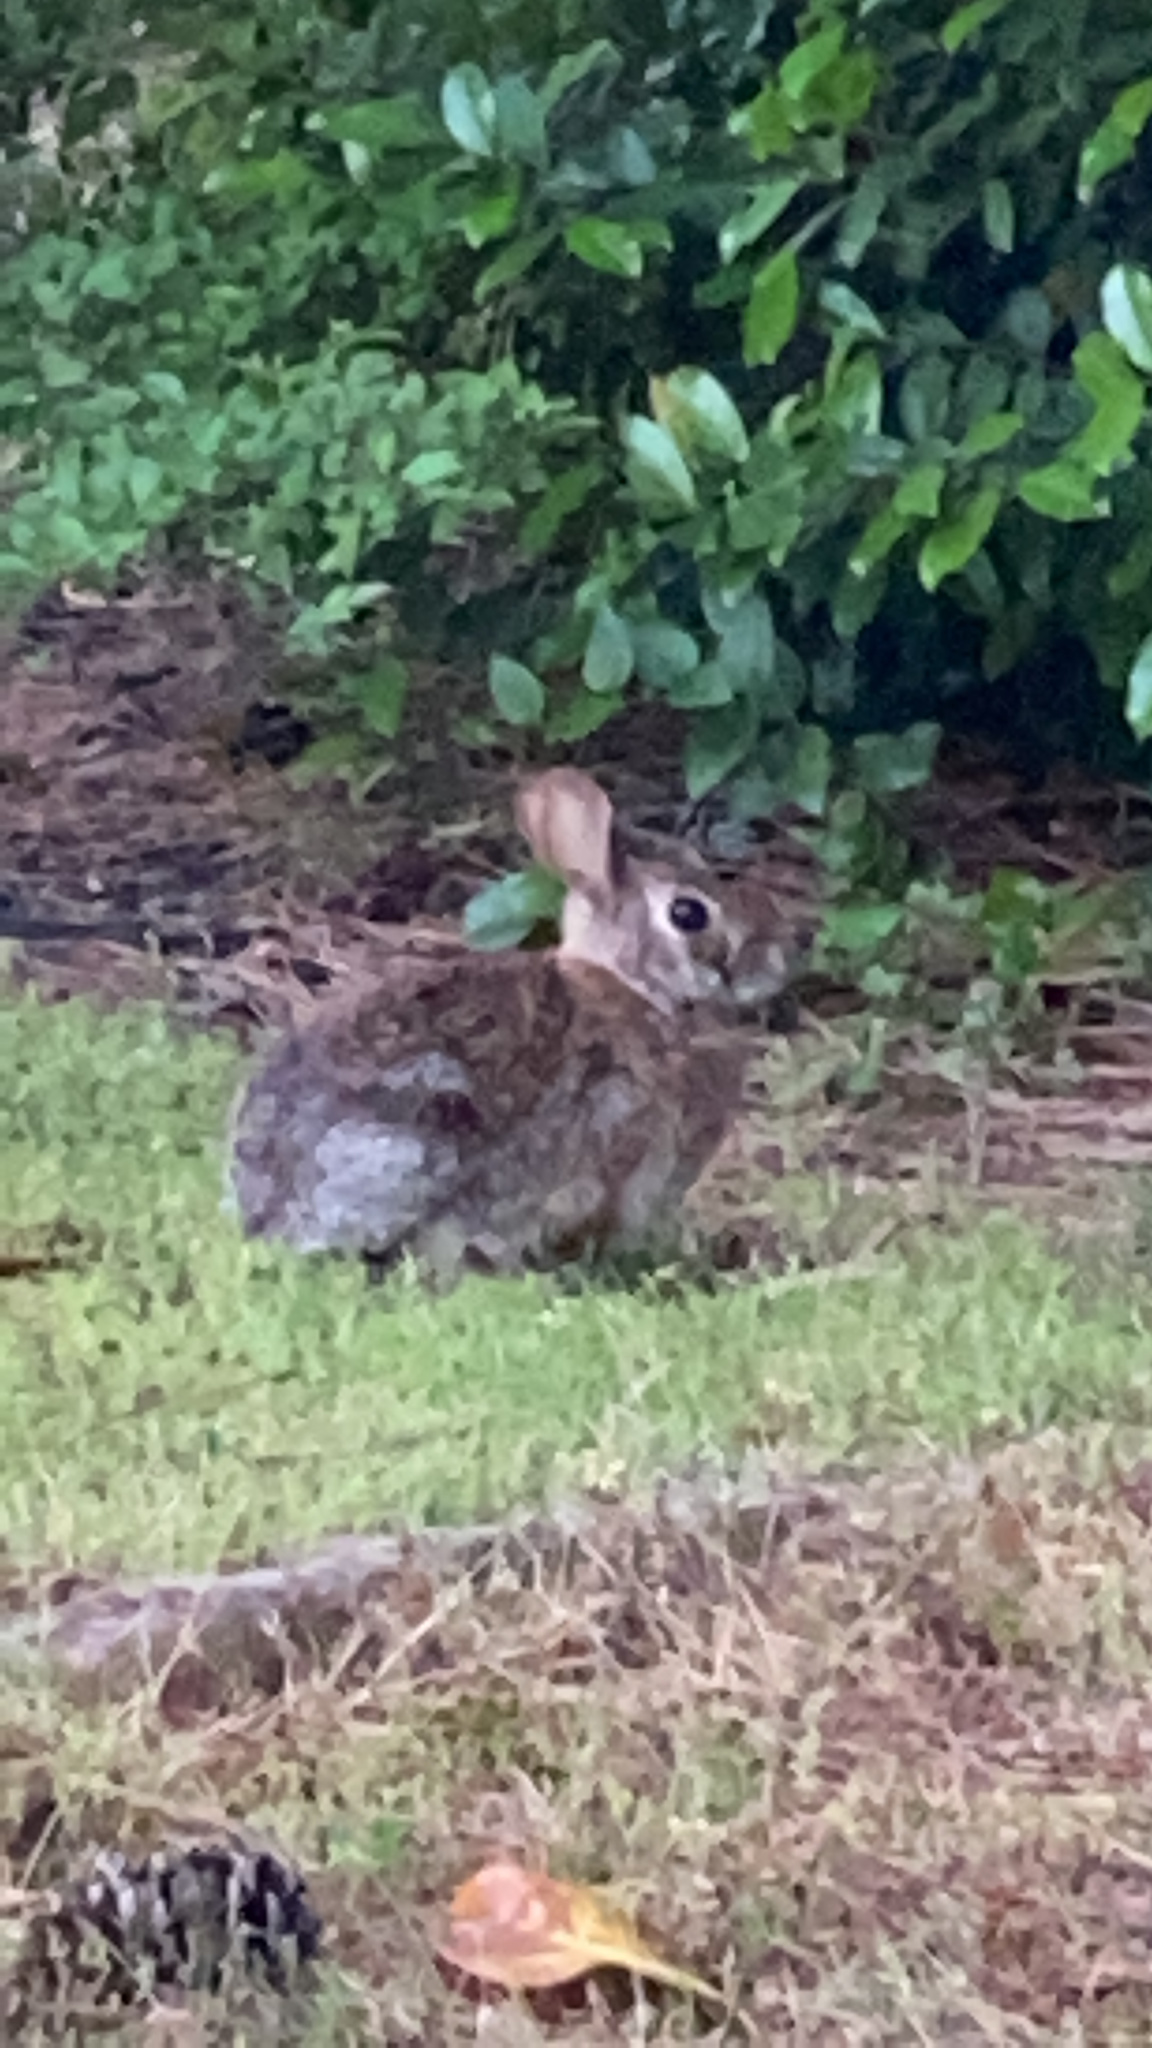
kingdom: Animalia
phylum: Chordata
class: Mammalia
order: Lagomorpha
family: Leporidae
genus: Sylvilagus
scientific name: Sylvilagus floridanus
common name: Eastern cottontail
